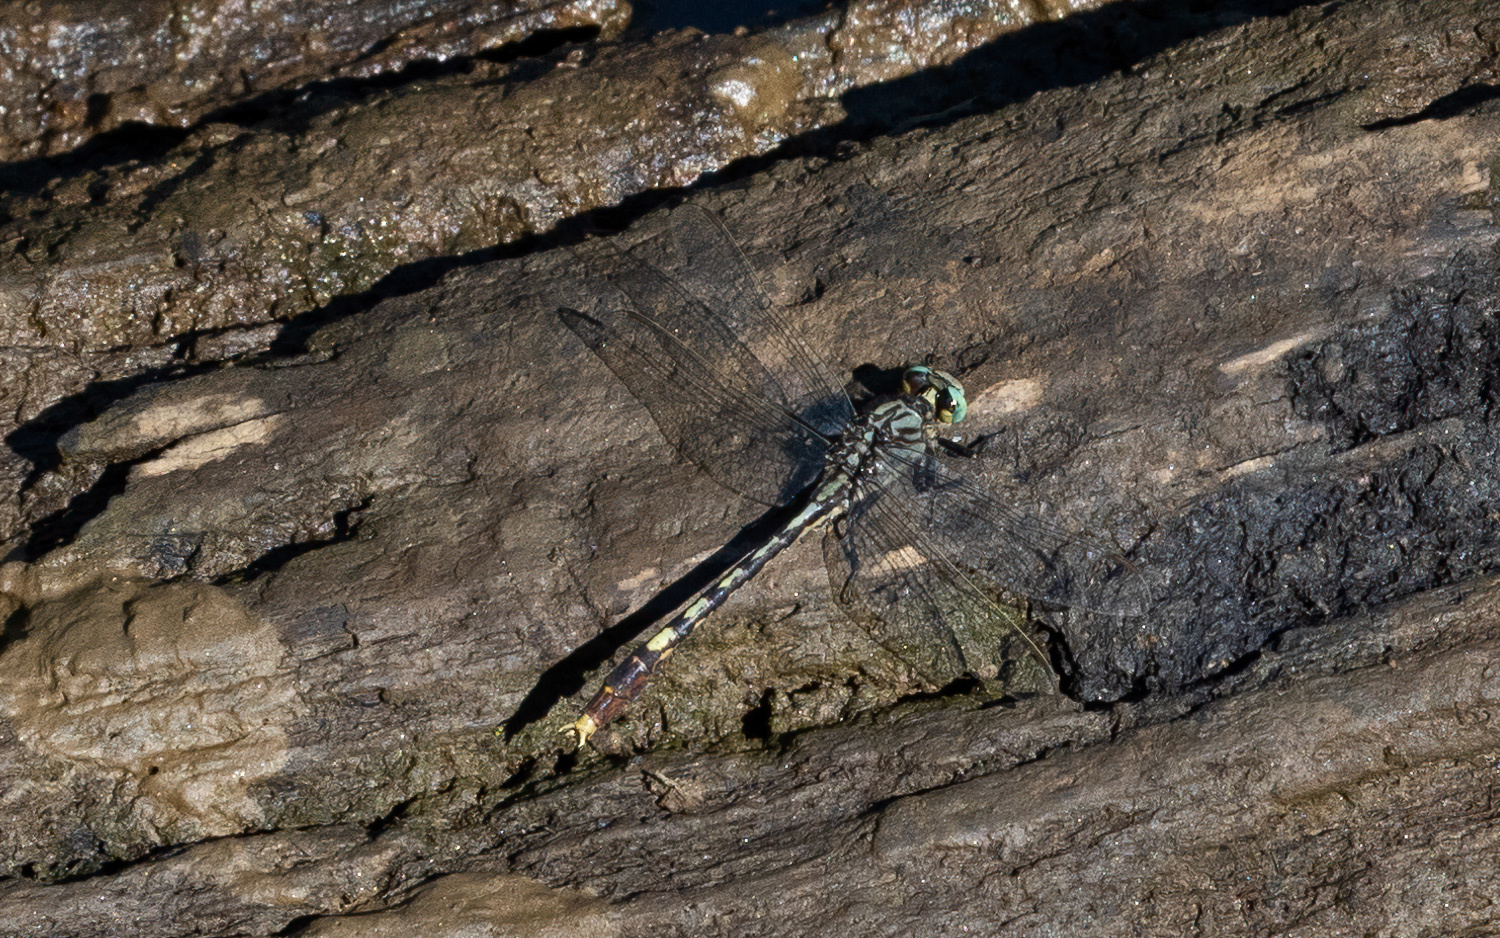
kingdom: Animalia
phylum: Arthropoda
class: Insecta
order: Odonata
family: Gomphidae
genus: Arigomphus
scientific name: Arigomphus villosipes
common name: Unicorn clubtail
